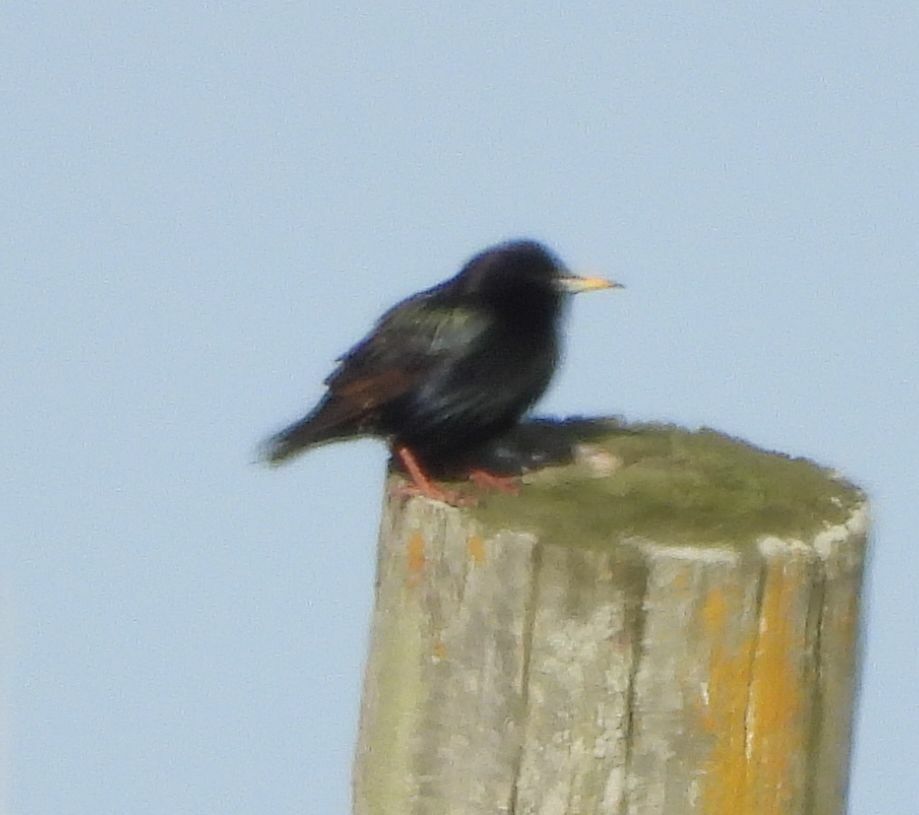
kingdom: Animalia
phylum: Chordata
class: Aves
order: Passeriformes
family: Sturnidae
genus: Sturnus
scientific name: Sturnus vulgaris
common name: Common starling
